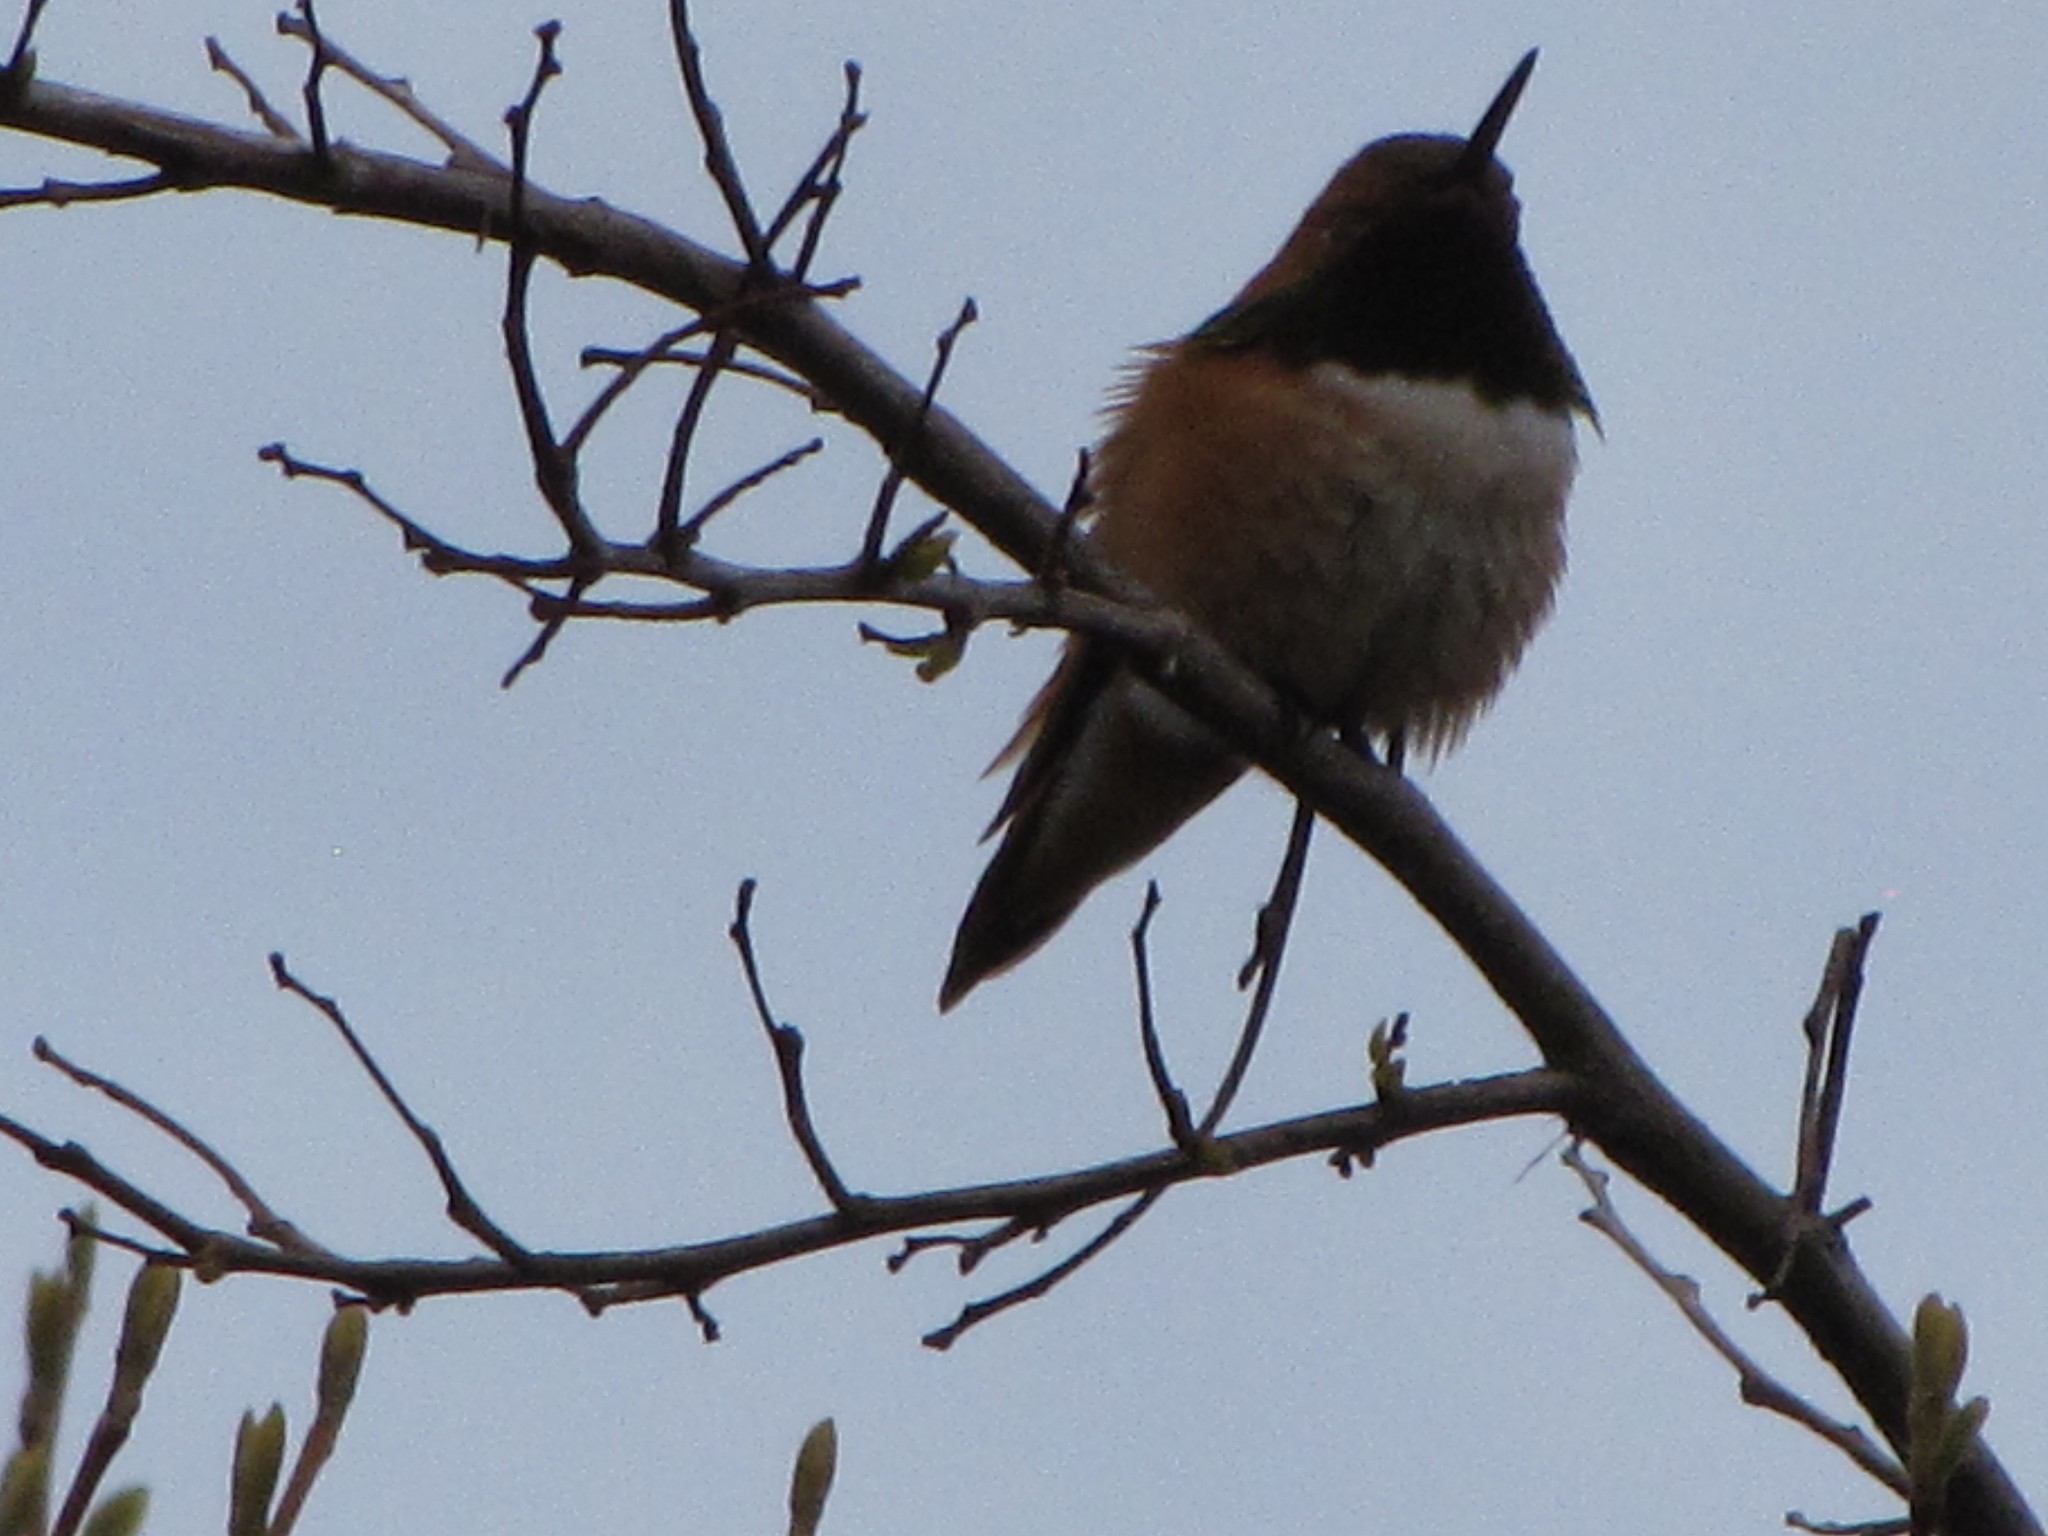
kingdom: Animalia
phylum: Chordata
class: Aves
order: Apodiformes
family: Trochilidae
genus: Selasphorus
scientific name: Selasphorus rufus
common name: Rufous hummingbird
